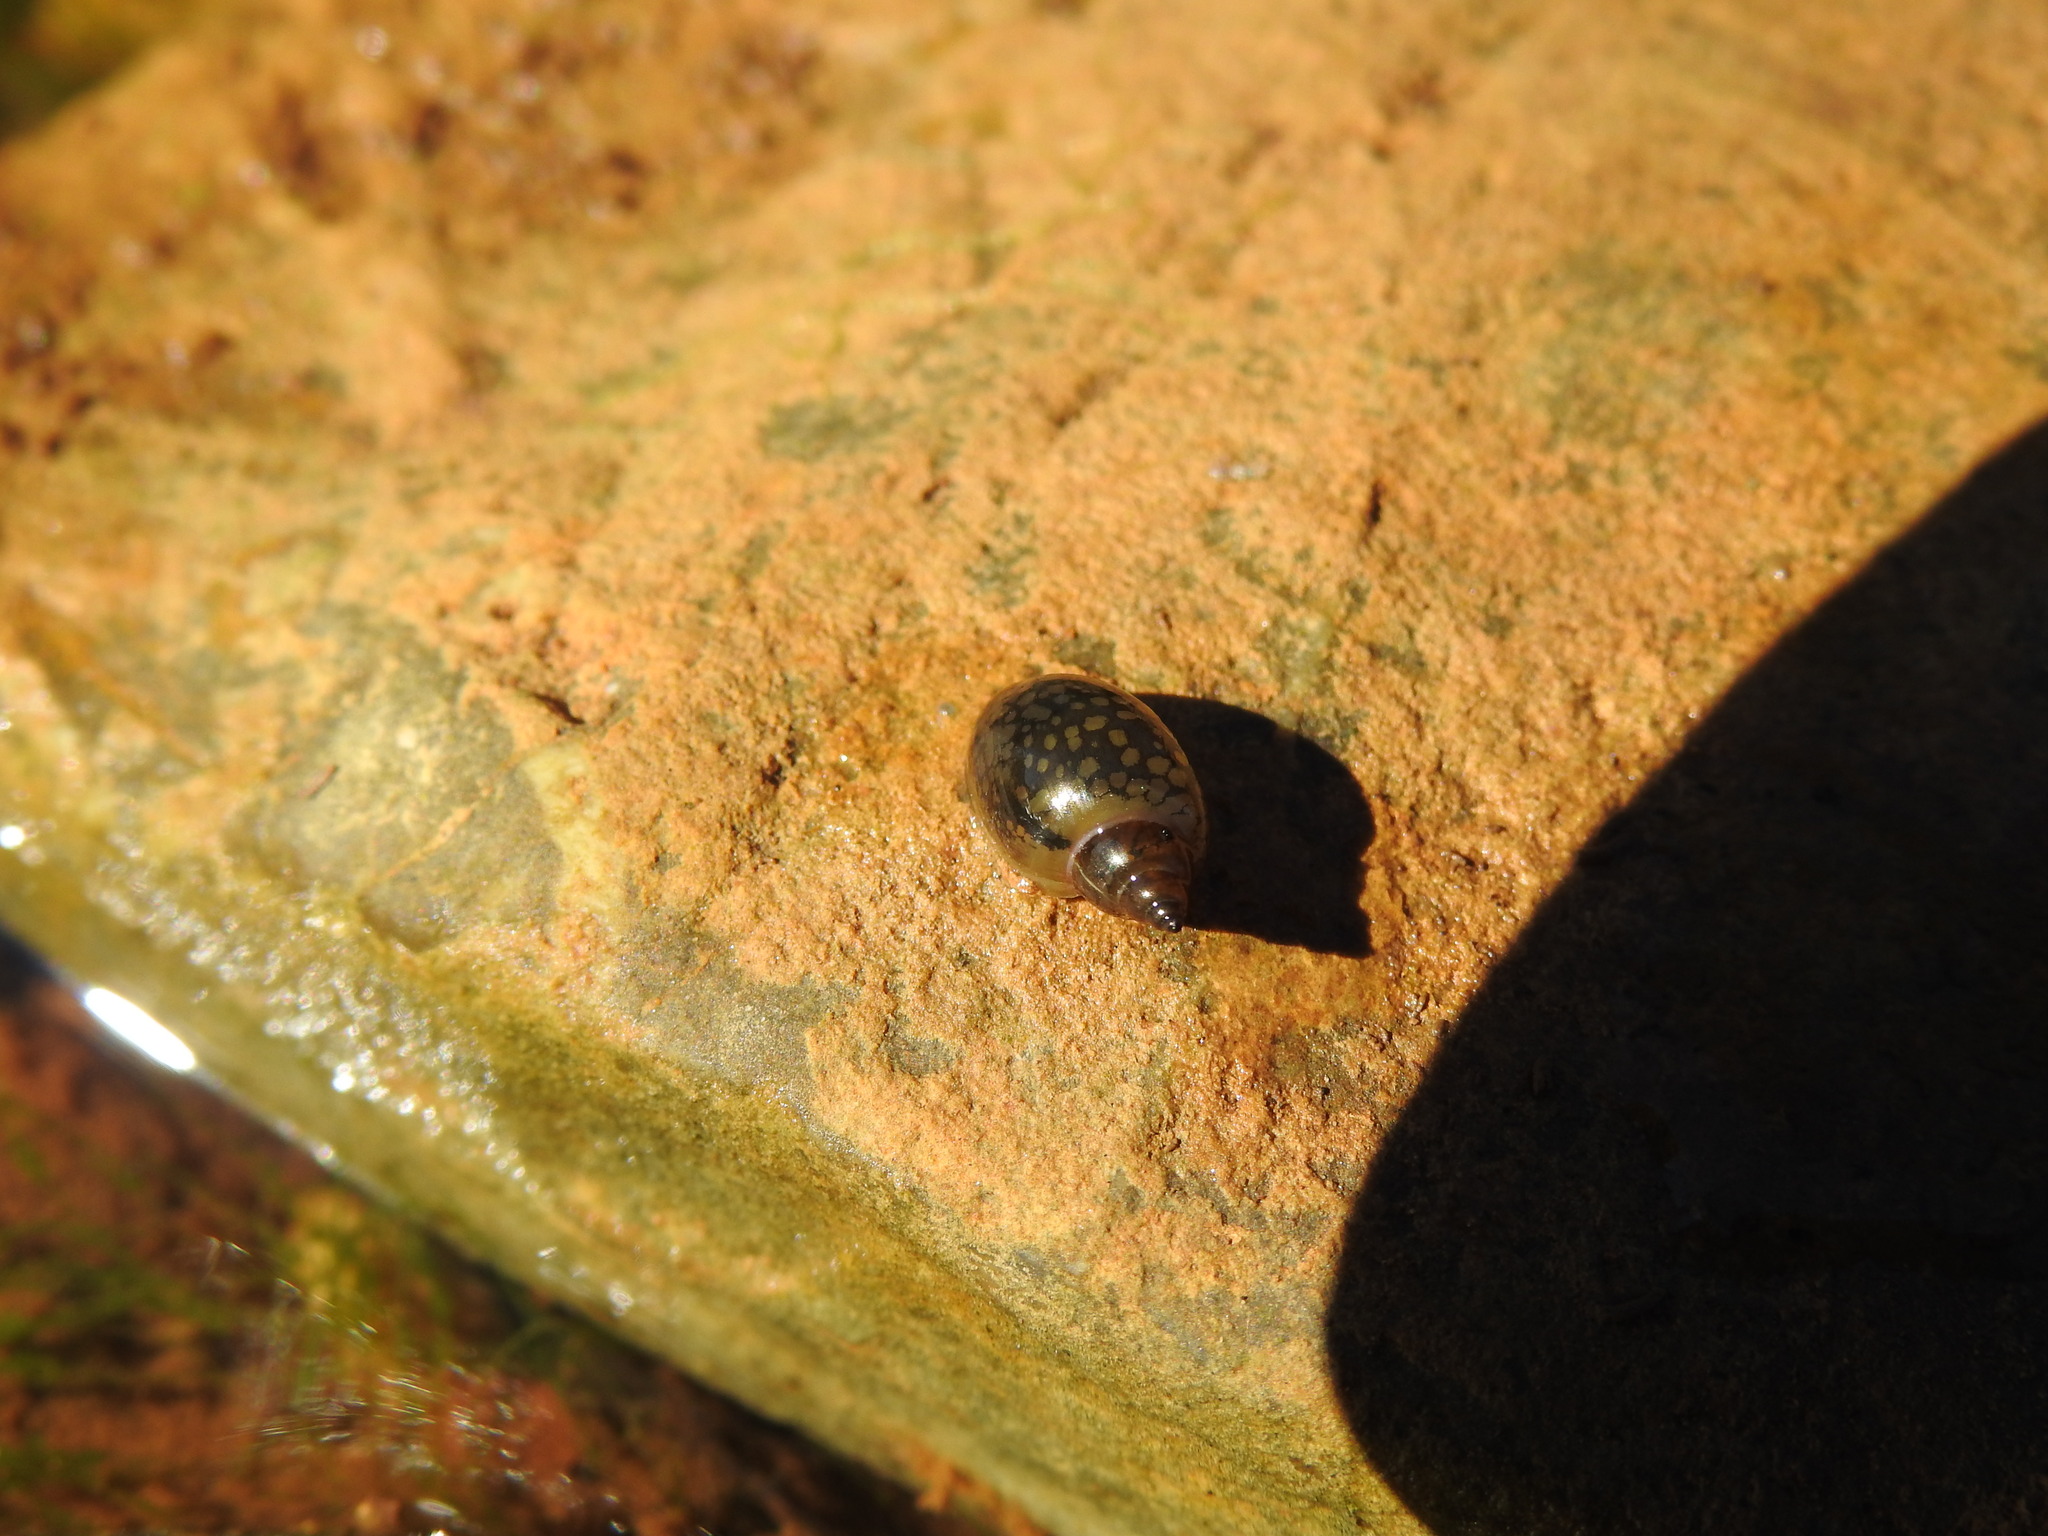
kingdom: Animalia
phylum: Mollusca
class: Gastropoda
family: Physidae
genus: Physella
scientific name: Physella acuta
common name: European physa
